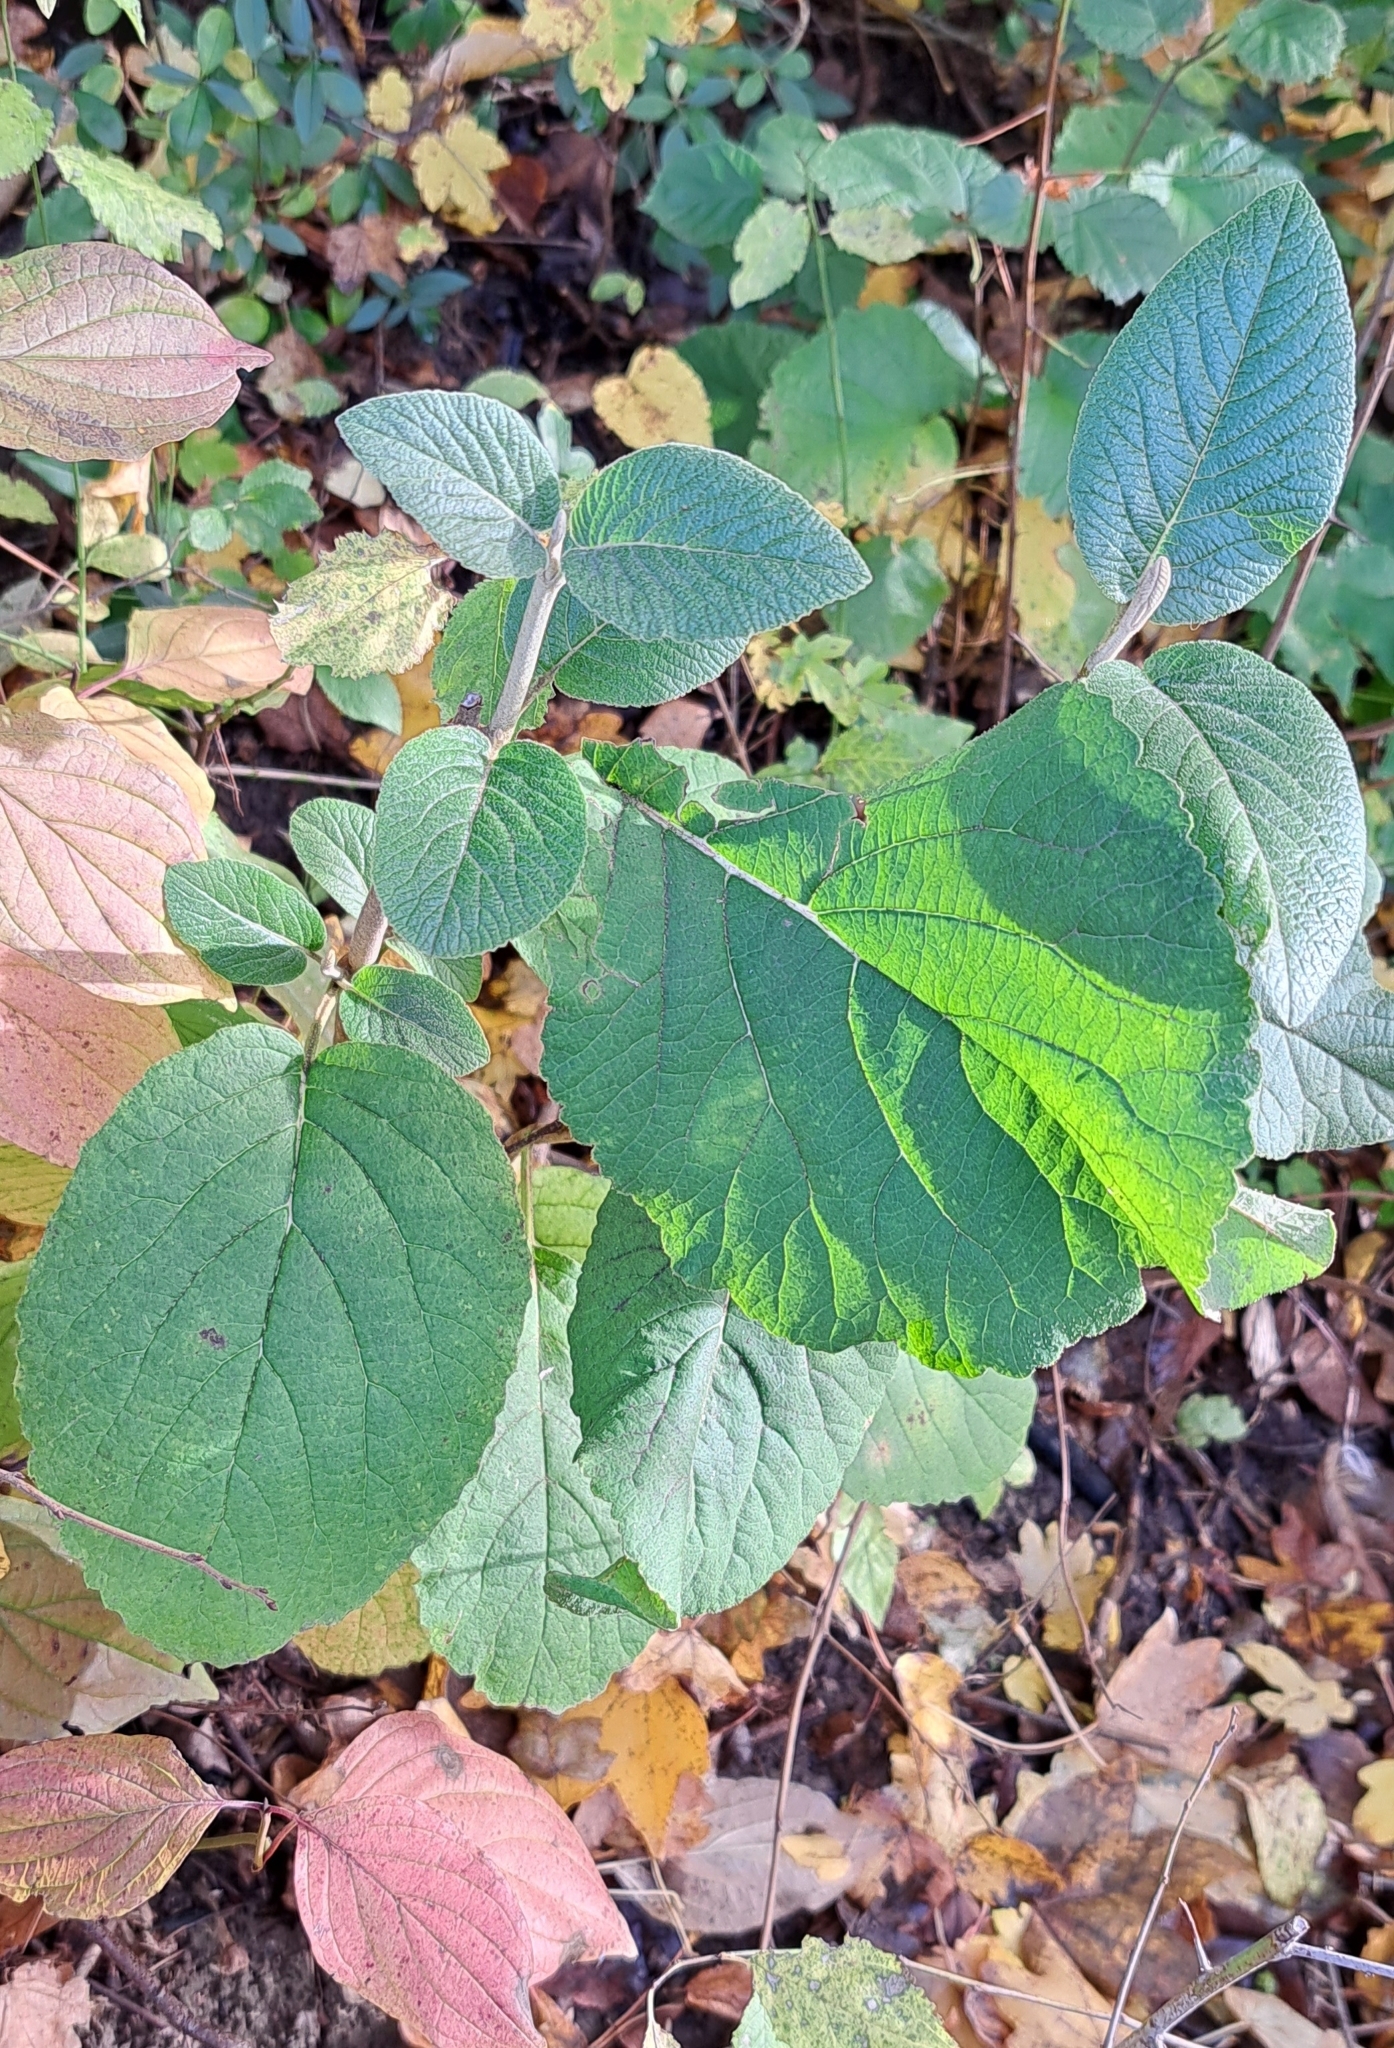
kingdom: Plantae
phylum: Tracheophyta
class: Magnoliopsida
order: Dipsacales
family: Viburnaceae
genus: Viburnum
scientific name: Viburnum lantana
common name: Wayfaring tree
